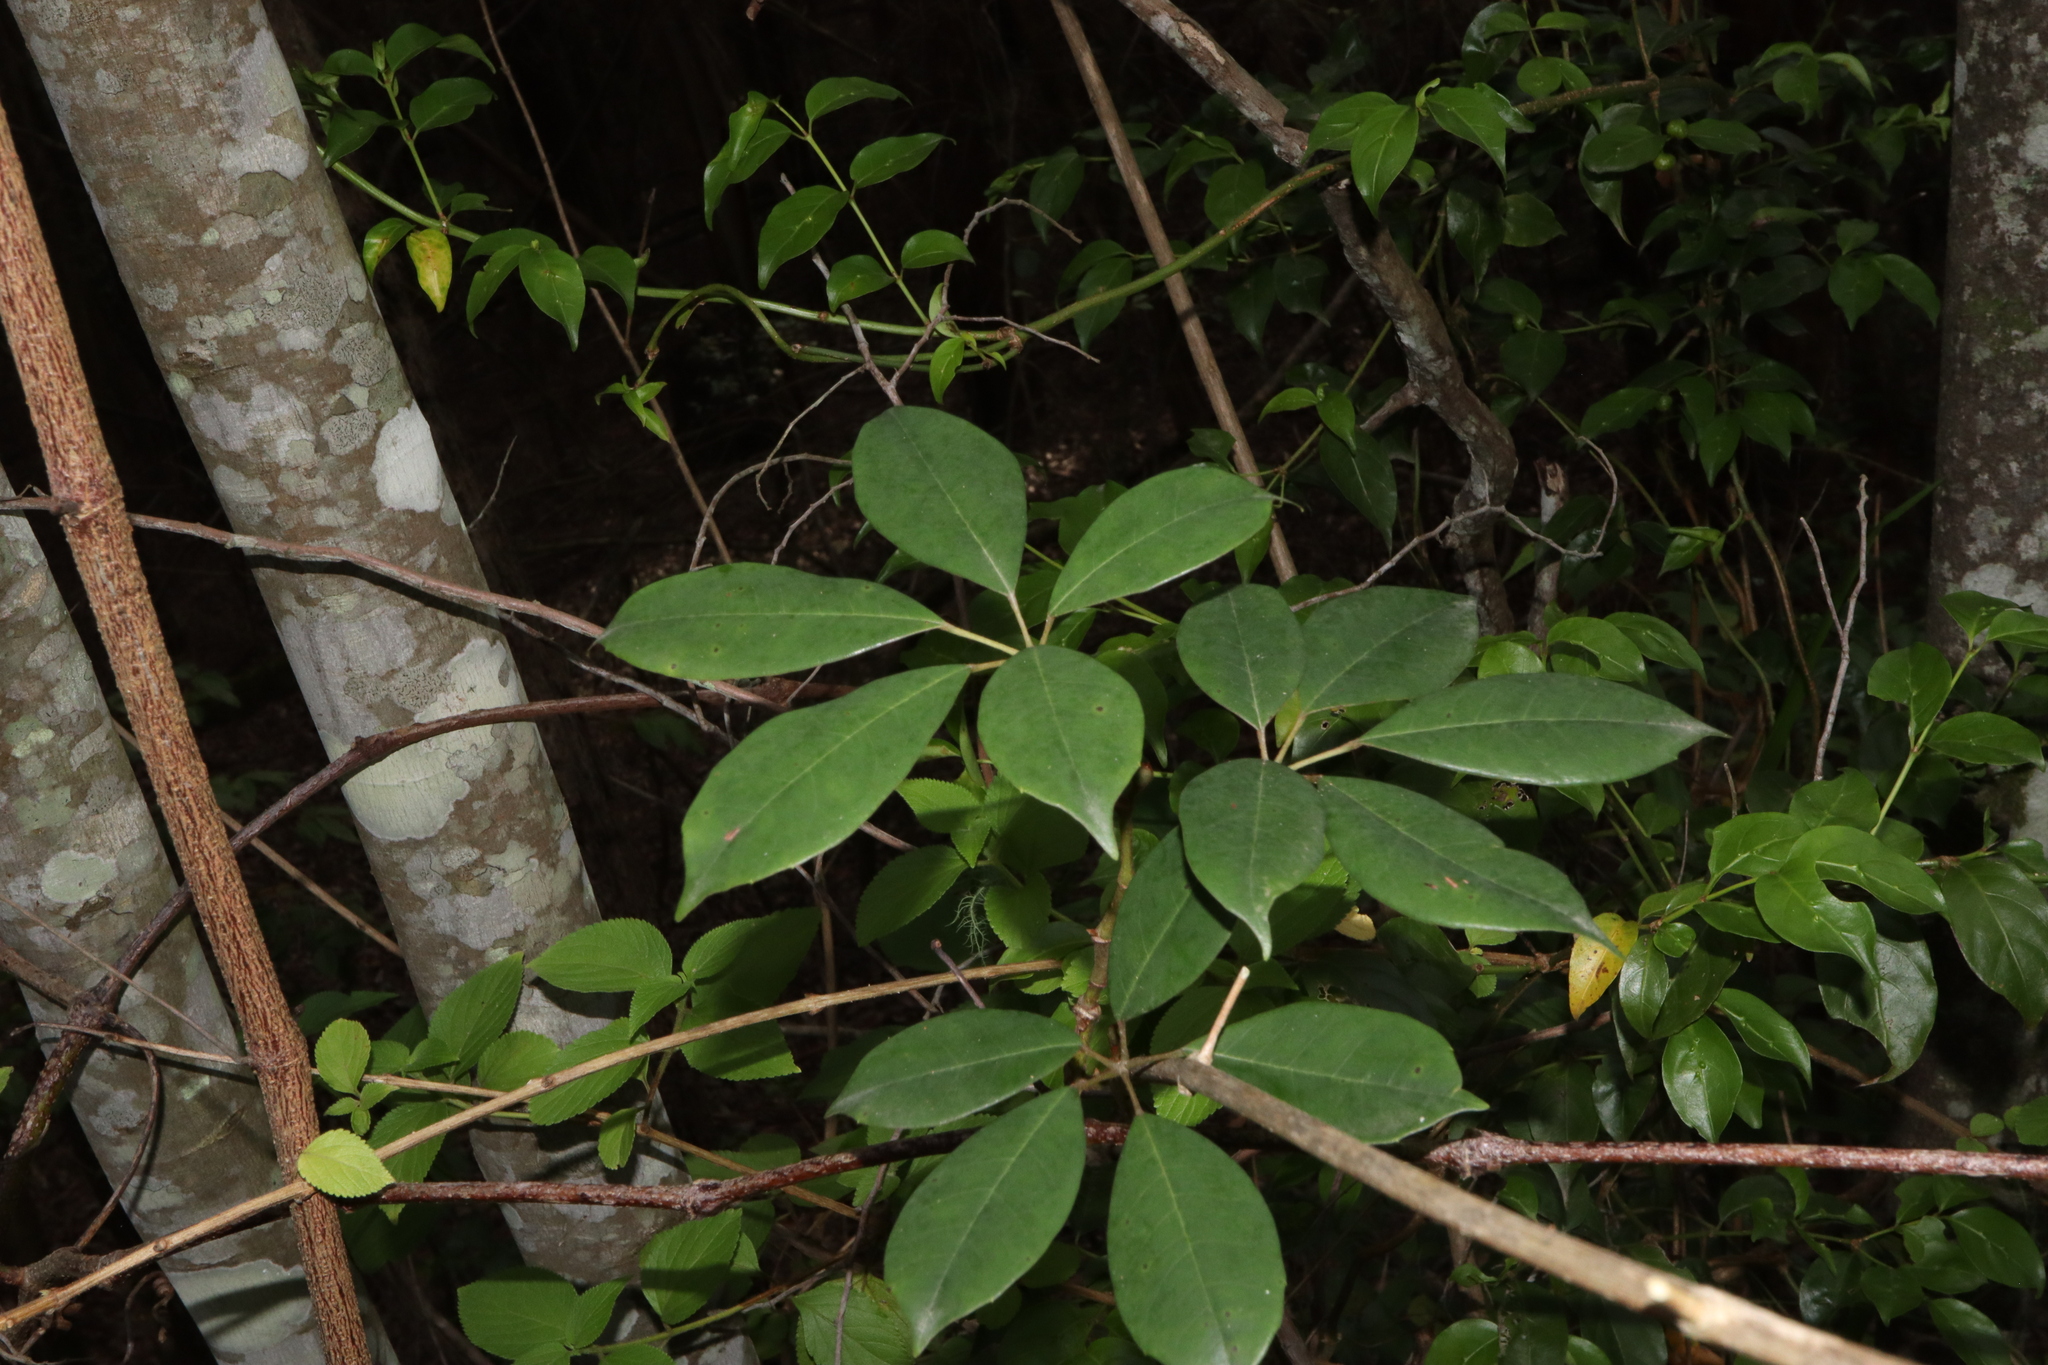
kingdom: Plantae
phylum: Tracheophyta
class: Magnoliopsida
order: Vitales
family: Vitaceae
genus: Nothocissus
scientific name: Nothocissus hypoglauca
